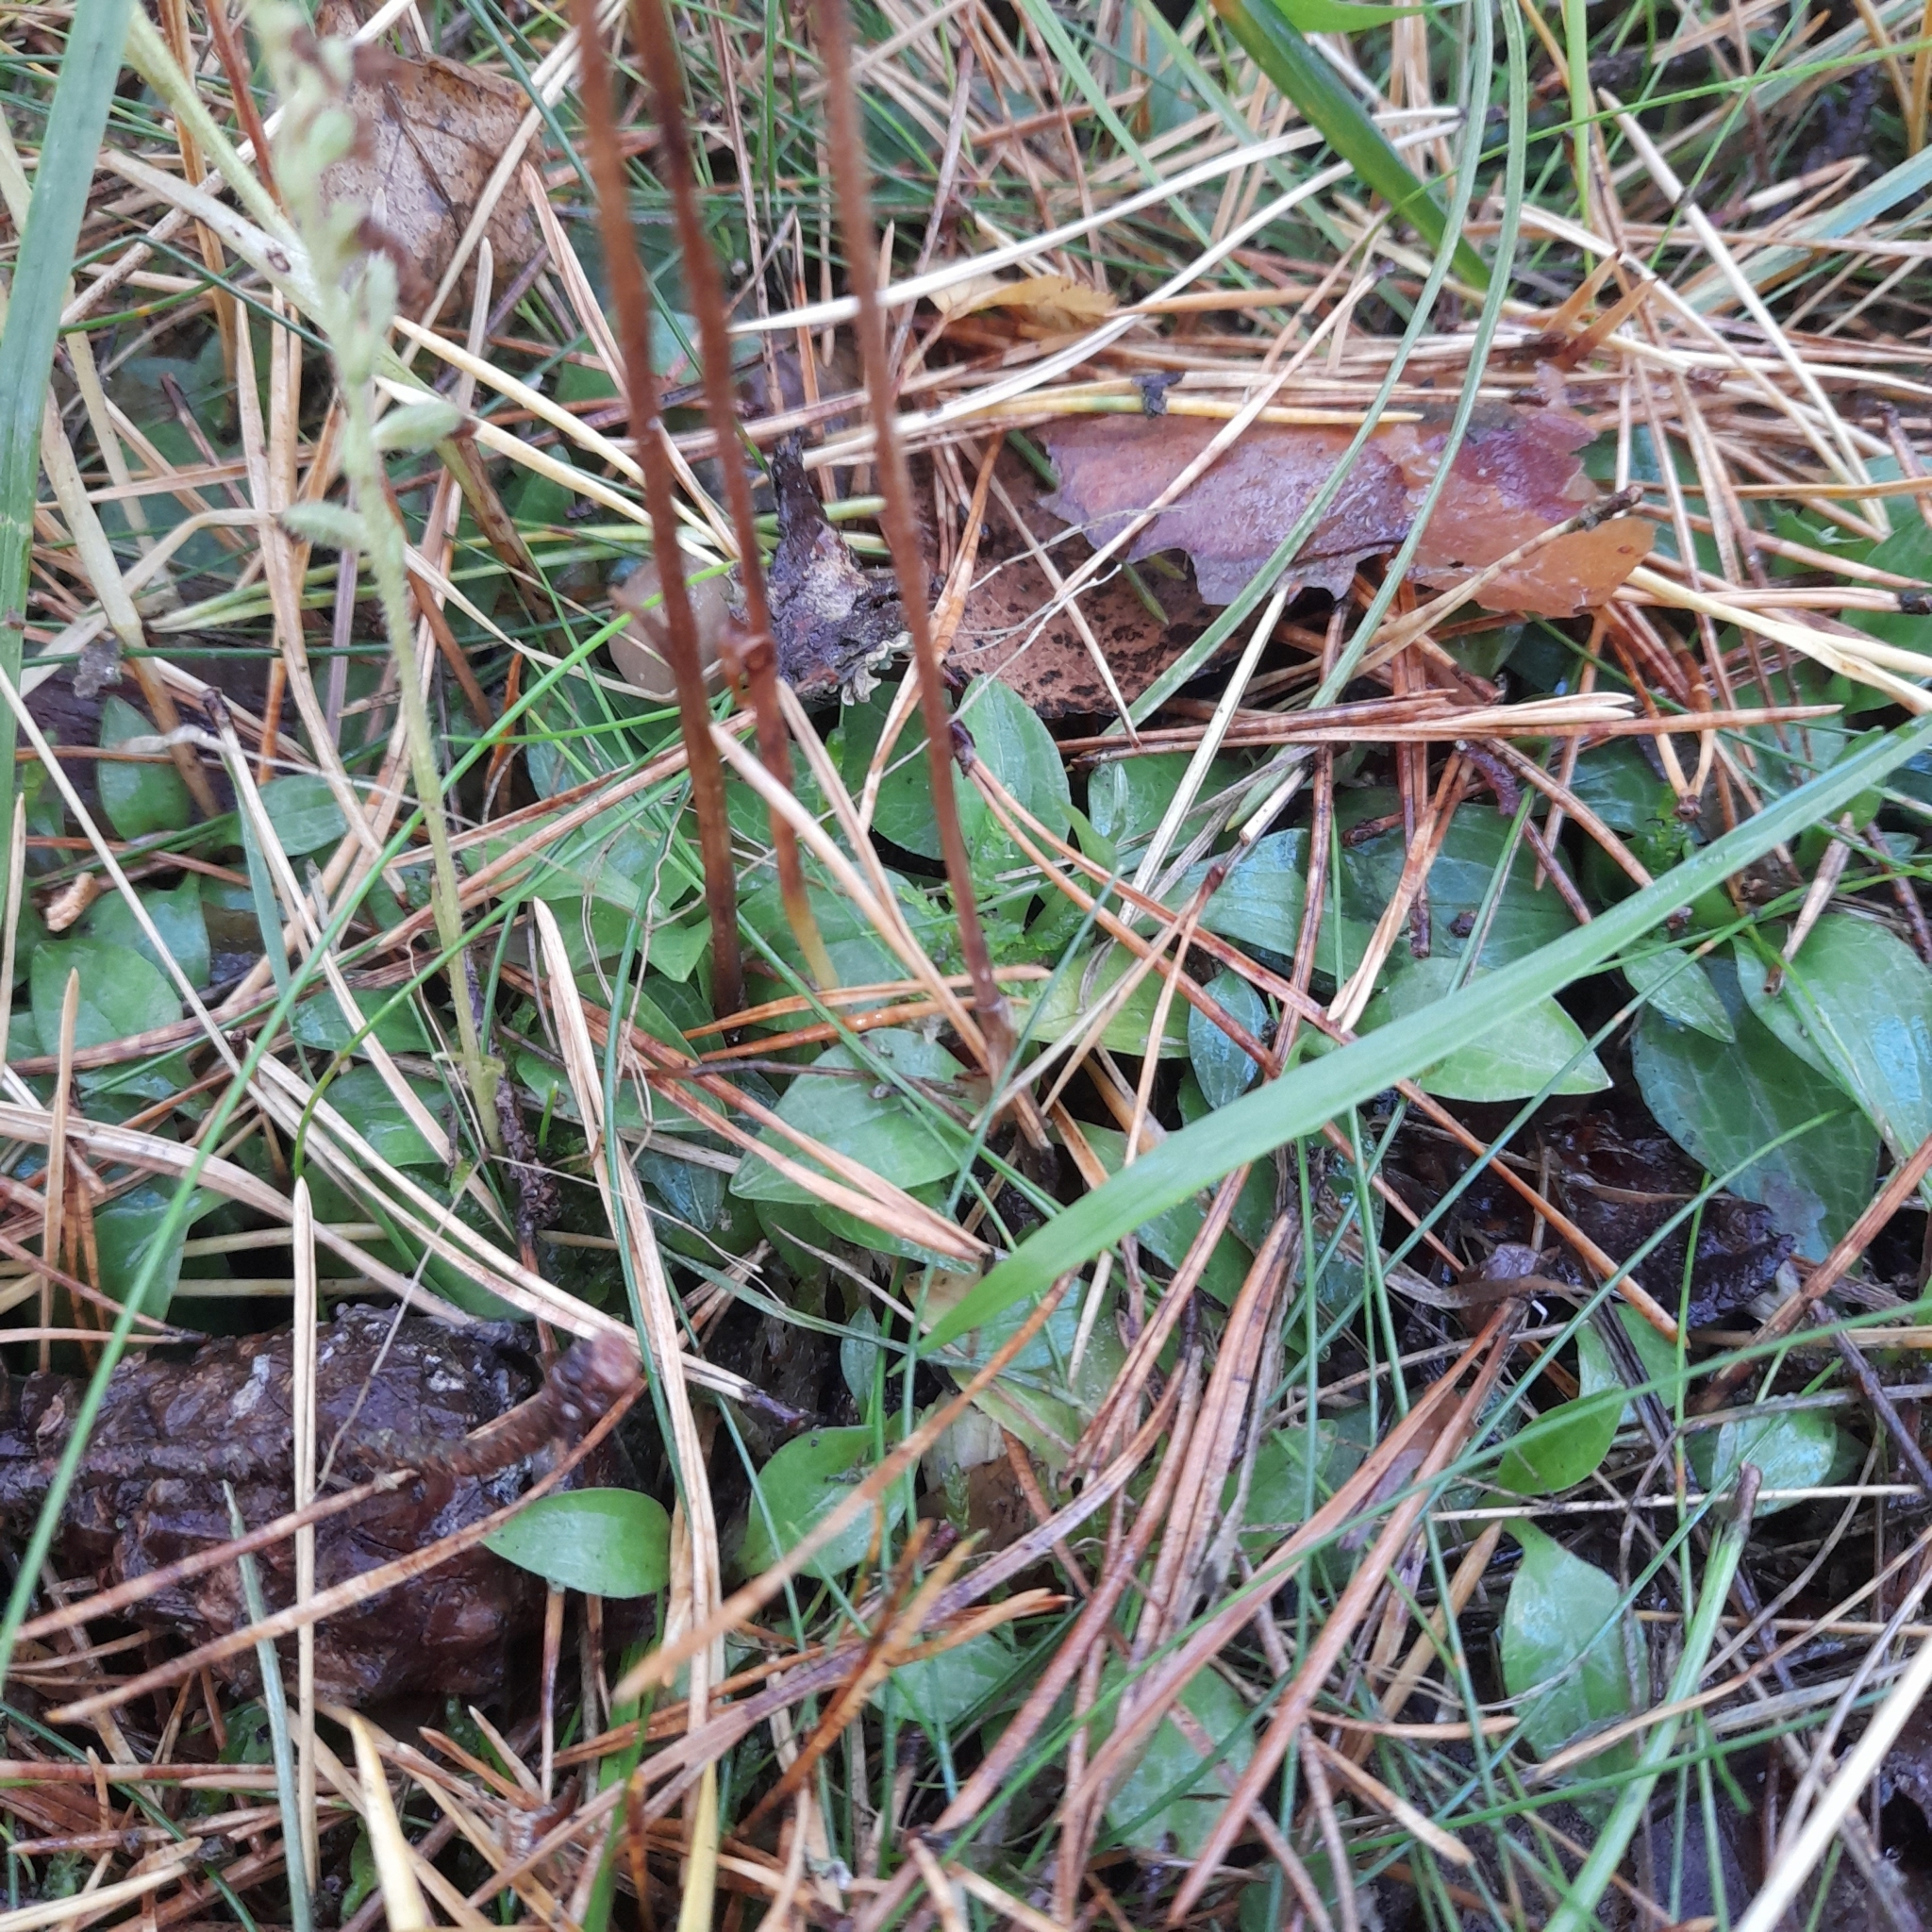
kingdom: Plantae
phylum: Tracheophyta
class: Liliopsida
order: Asparagales
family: Orchidaceae
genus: Goodyera
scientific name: Goodyera repens
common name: Creeping lady's-tresses
